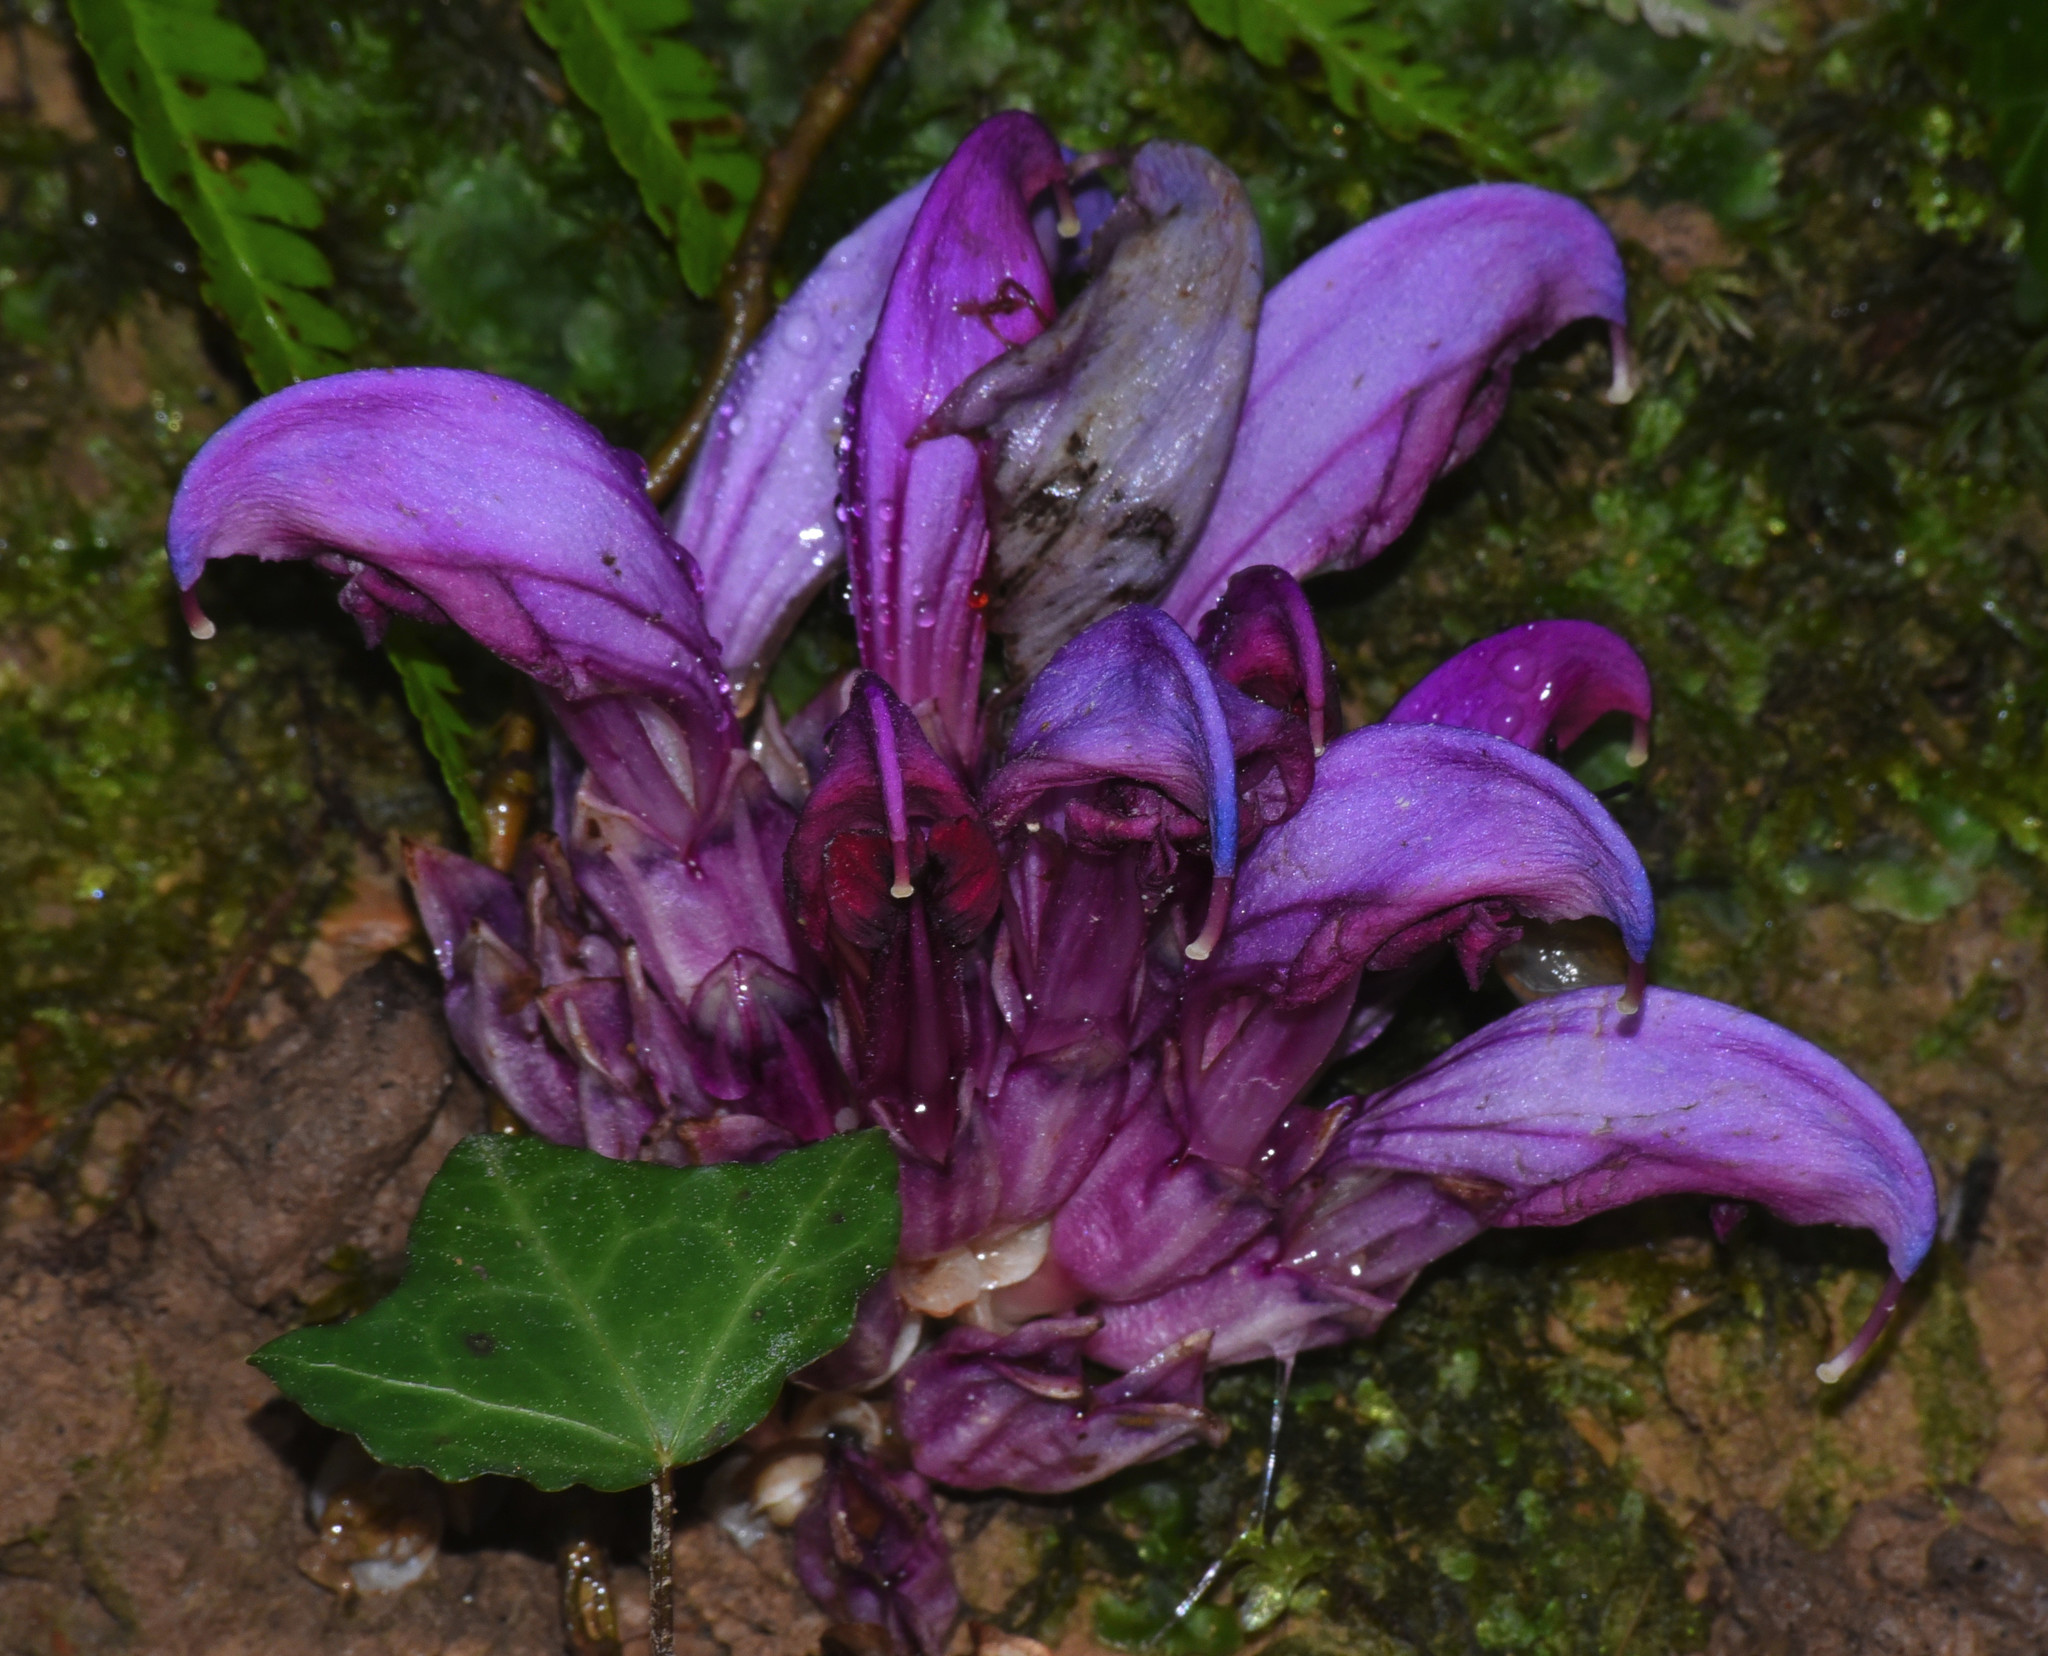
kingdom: Plantae
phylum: Tracheophyta
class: Magnoliopsida
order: Lamiales
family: Orobanchaceae
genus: Lathraea
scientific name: Lathraea clandestina
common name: Purple toothwort
